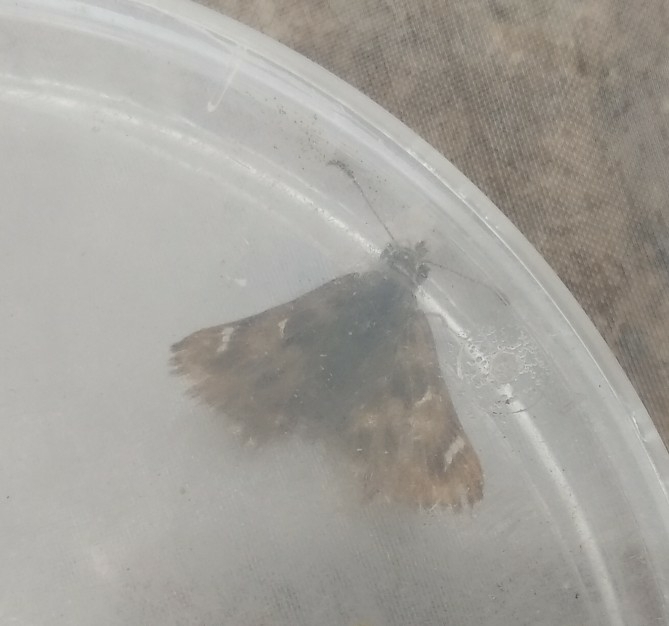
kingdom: Animalia
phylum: Arthropoda
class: Insecta
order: Lepidoptera
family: Hesperiidae
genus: Carcharodus
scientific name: Carcharodus alceae
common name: Mallow skipper
